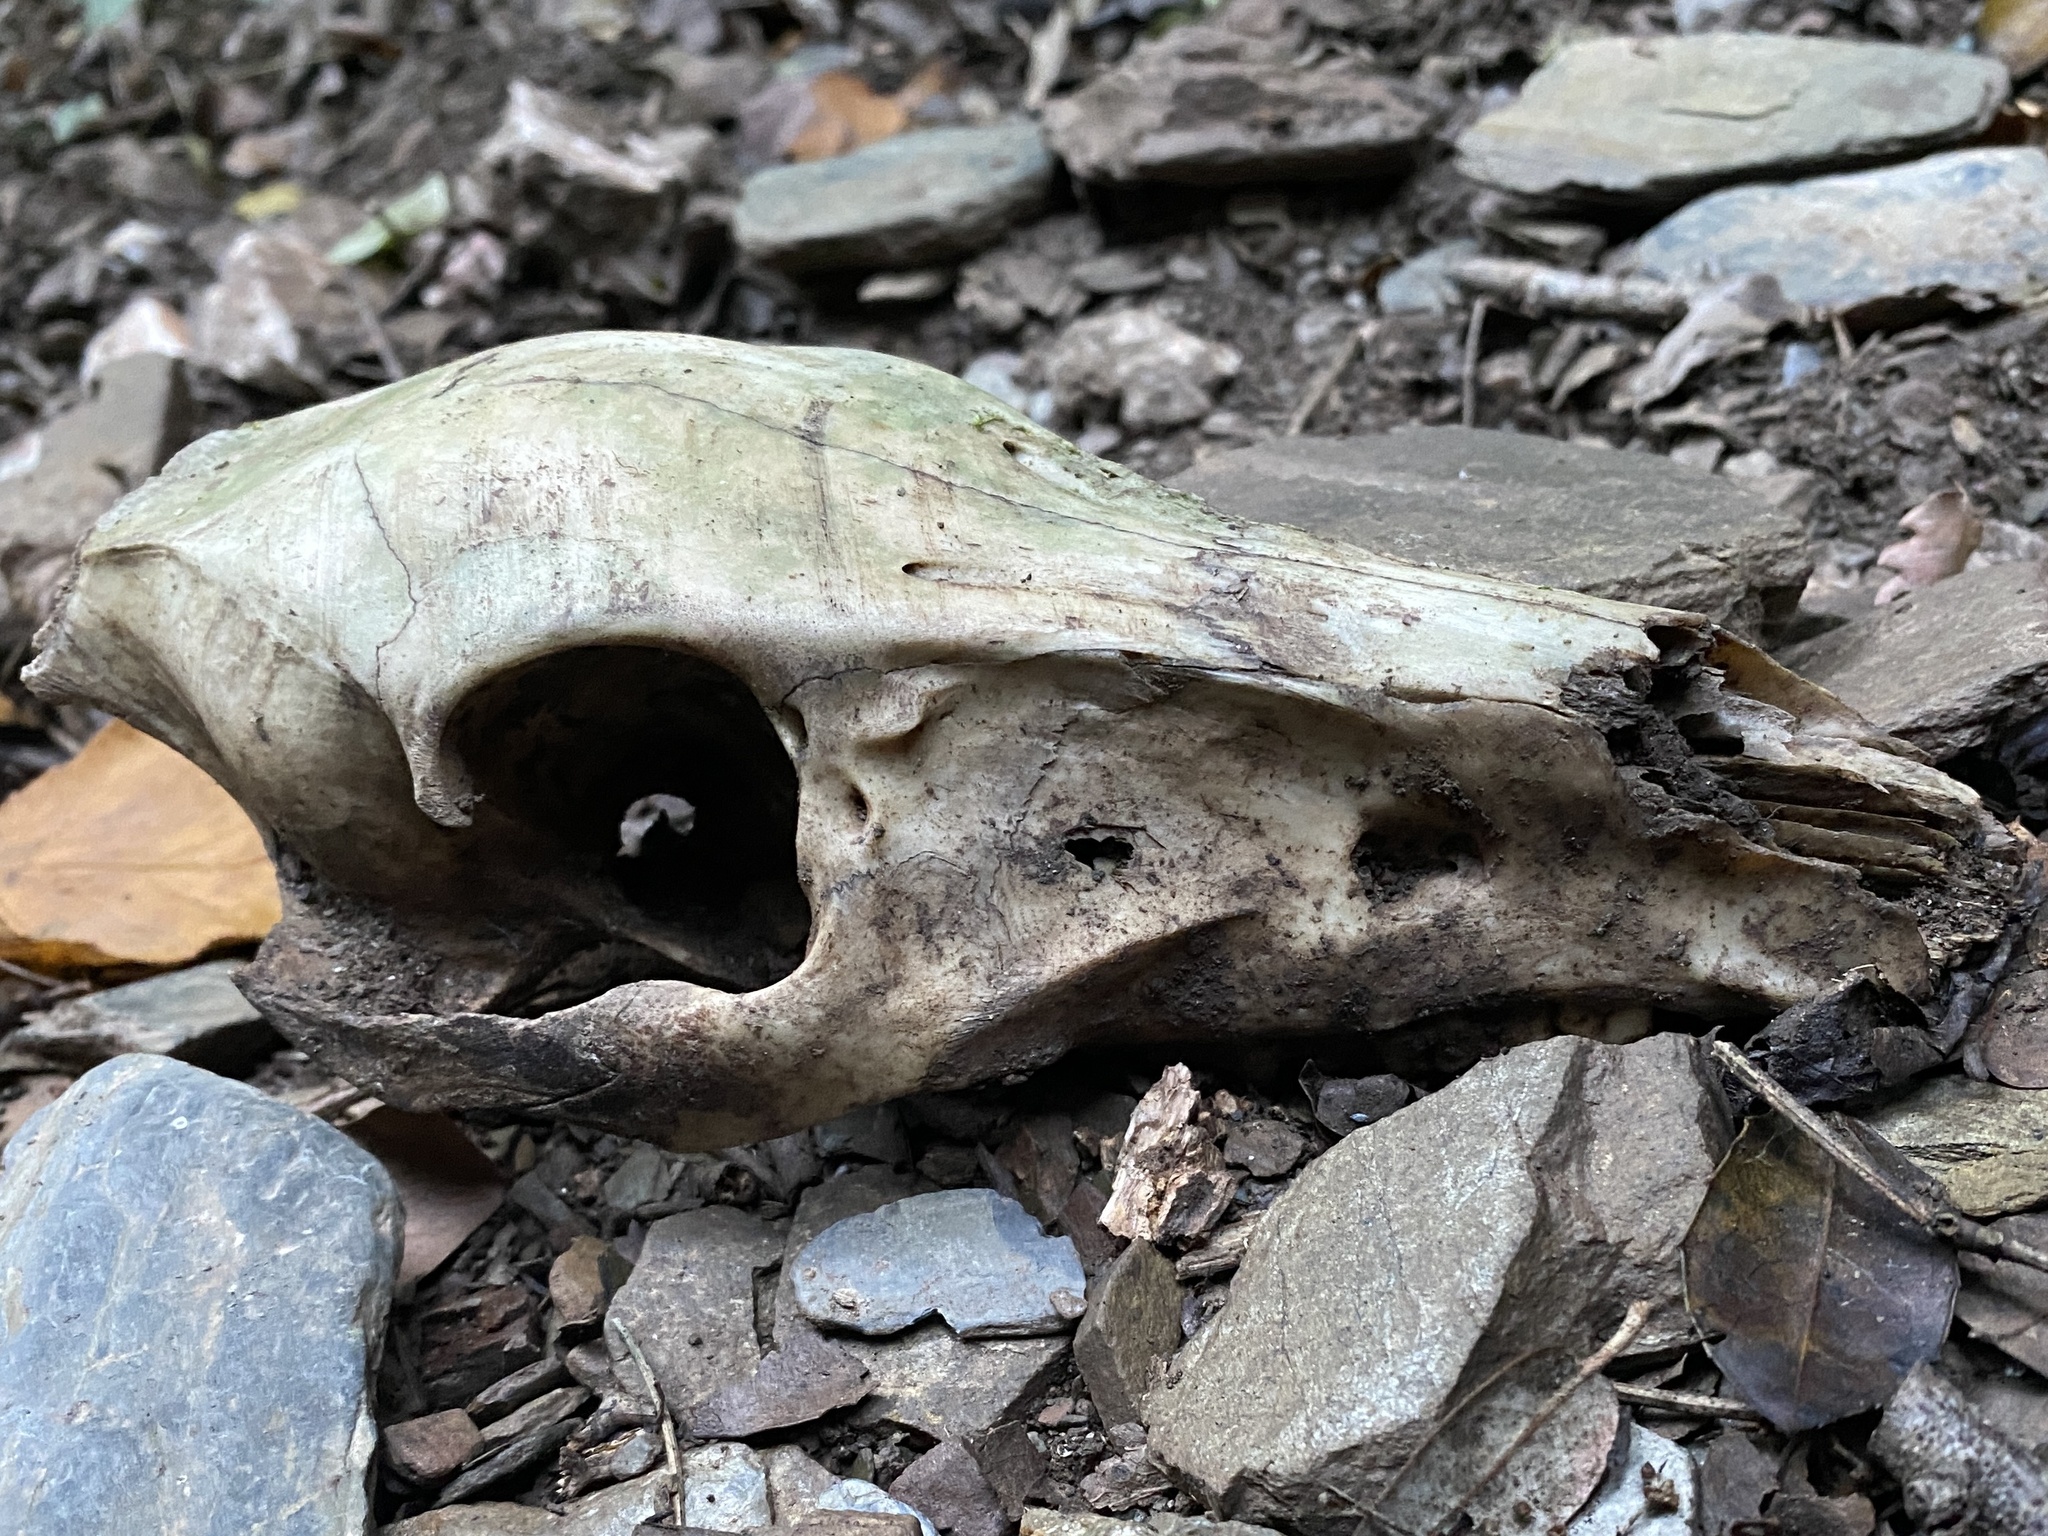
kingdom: Animalia
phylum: Chordata
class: Mammalia
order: Artiodactyla
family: Suidae
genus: Sus
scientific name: Sus scrofa
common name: Wild boar
